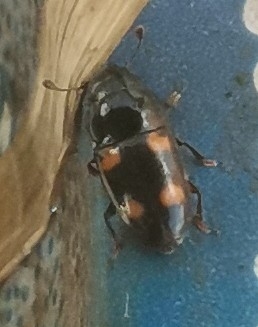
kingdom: Animalia
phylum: Arthropoda
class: Insecta
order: Coleoptera
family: Nitidulidae
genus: Glischrochilus
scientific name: Glischrochilus hortensis
